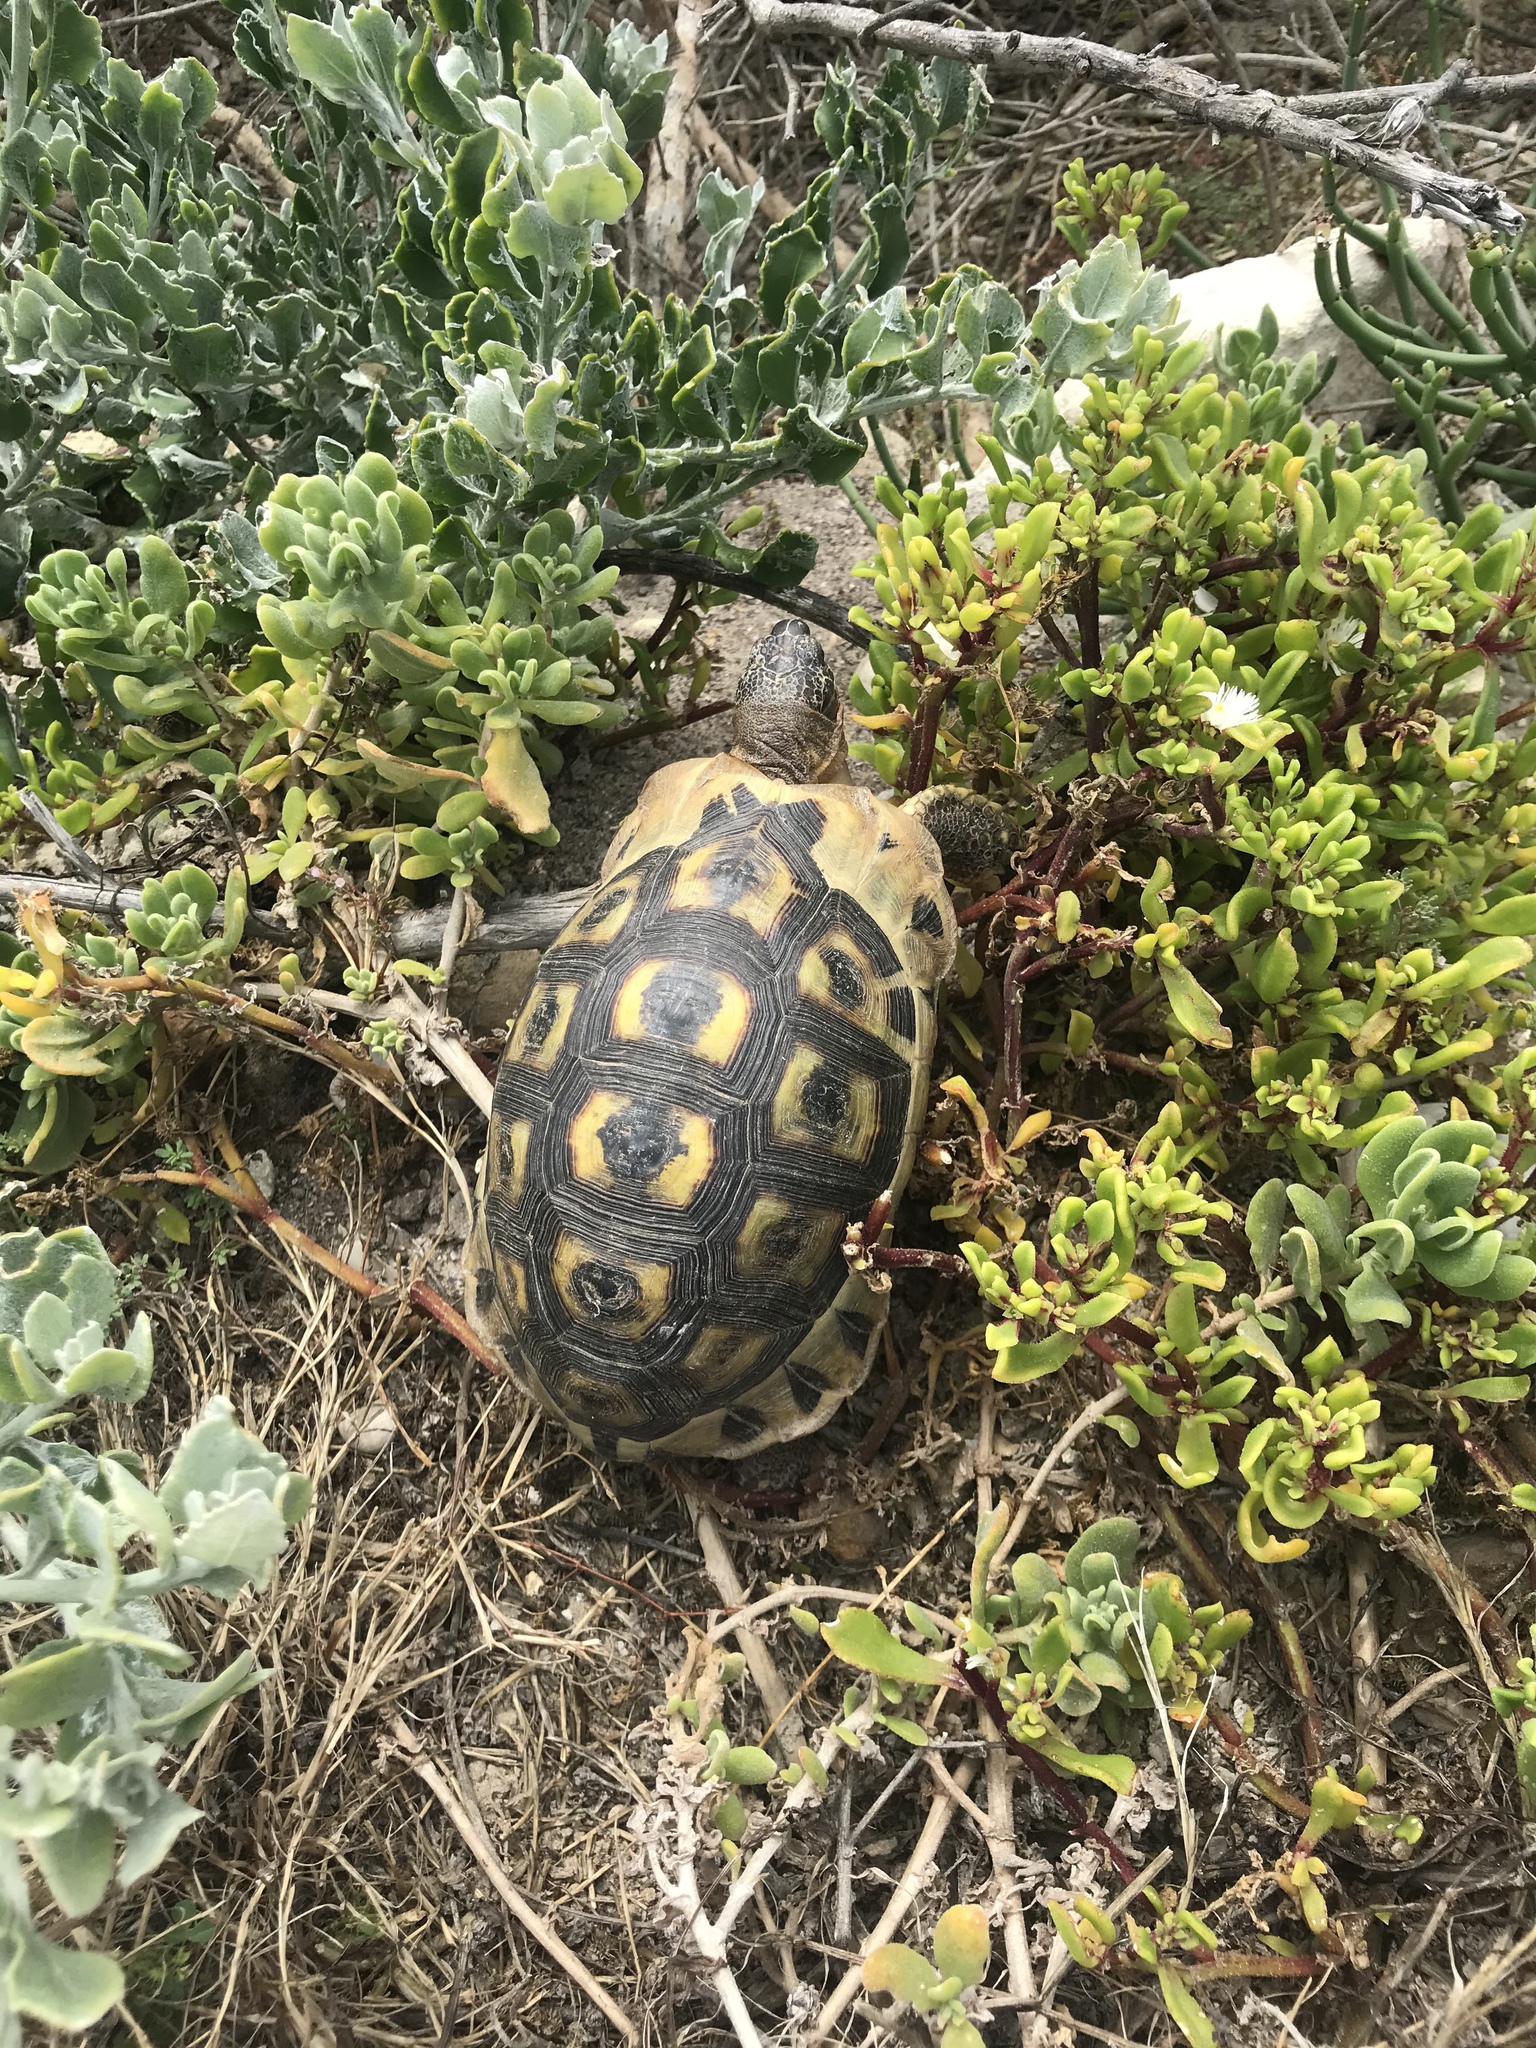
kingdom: Animalia
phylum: Chordata
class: Testudines
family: Testudinidae
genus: Chersina
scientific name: Chersina angulata
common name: South african bowsprit tortoise
